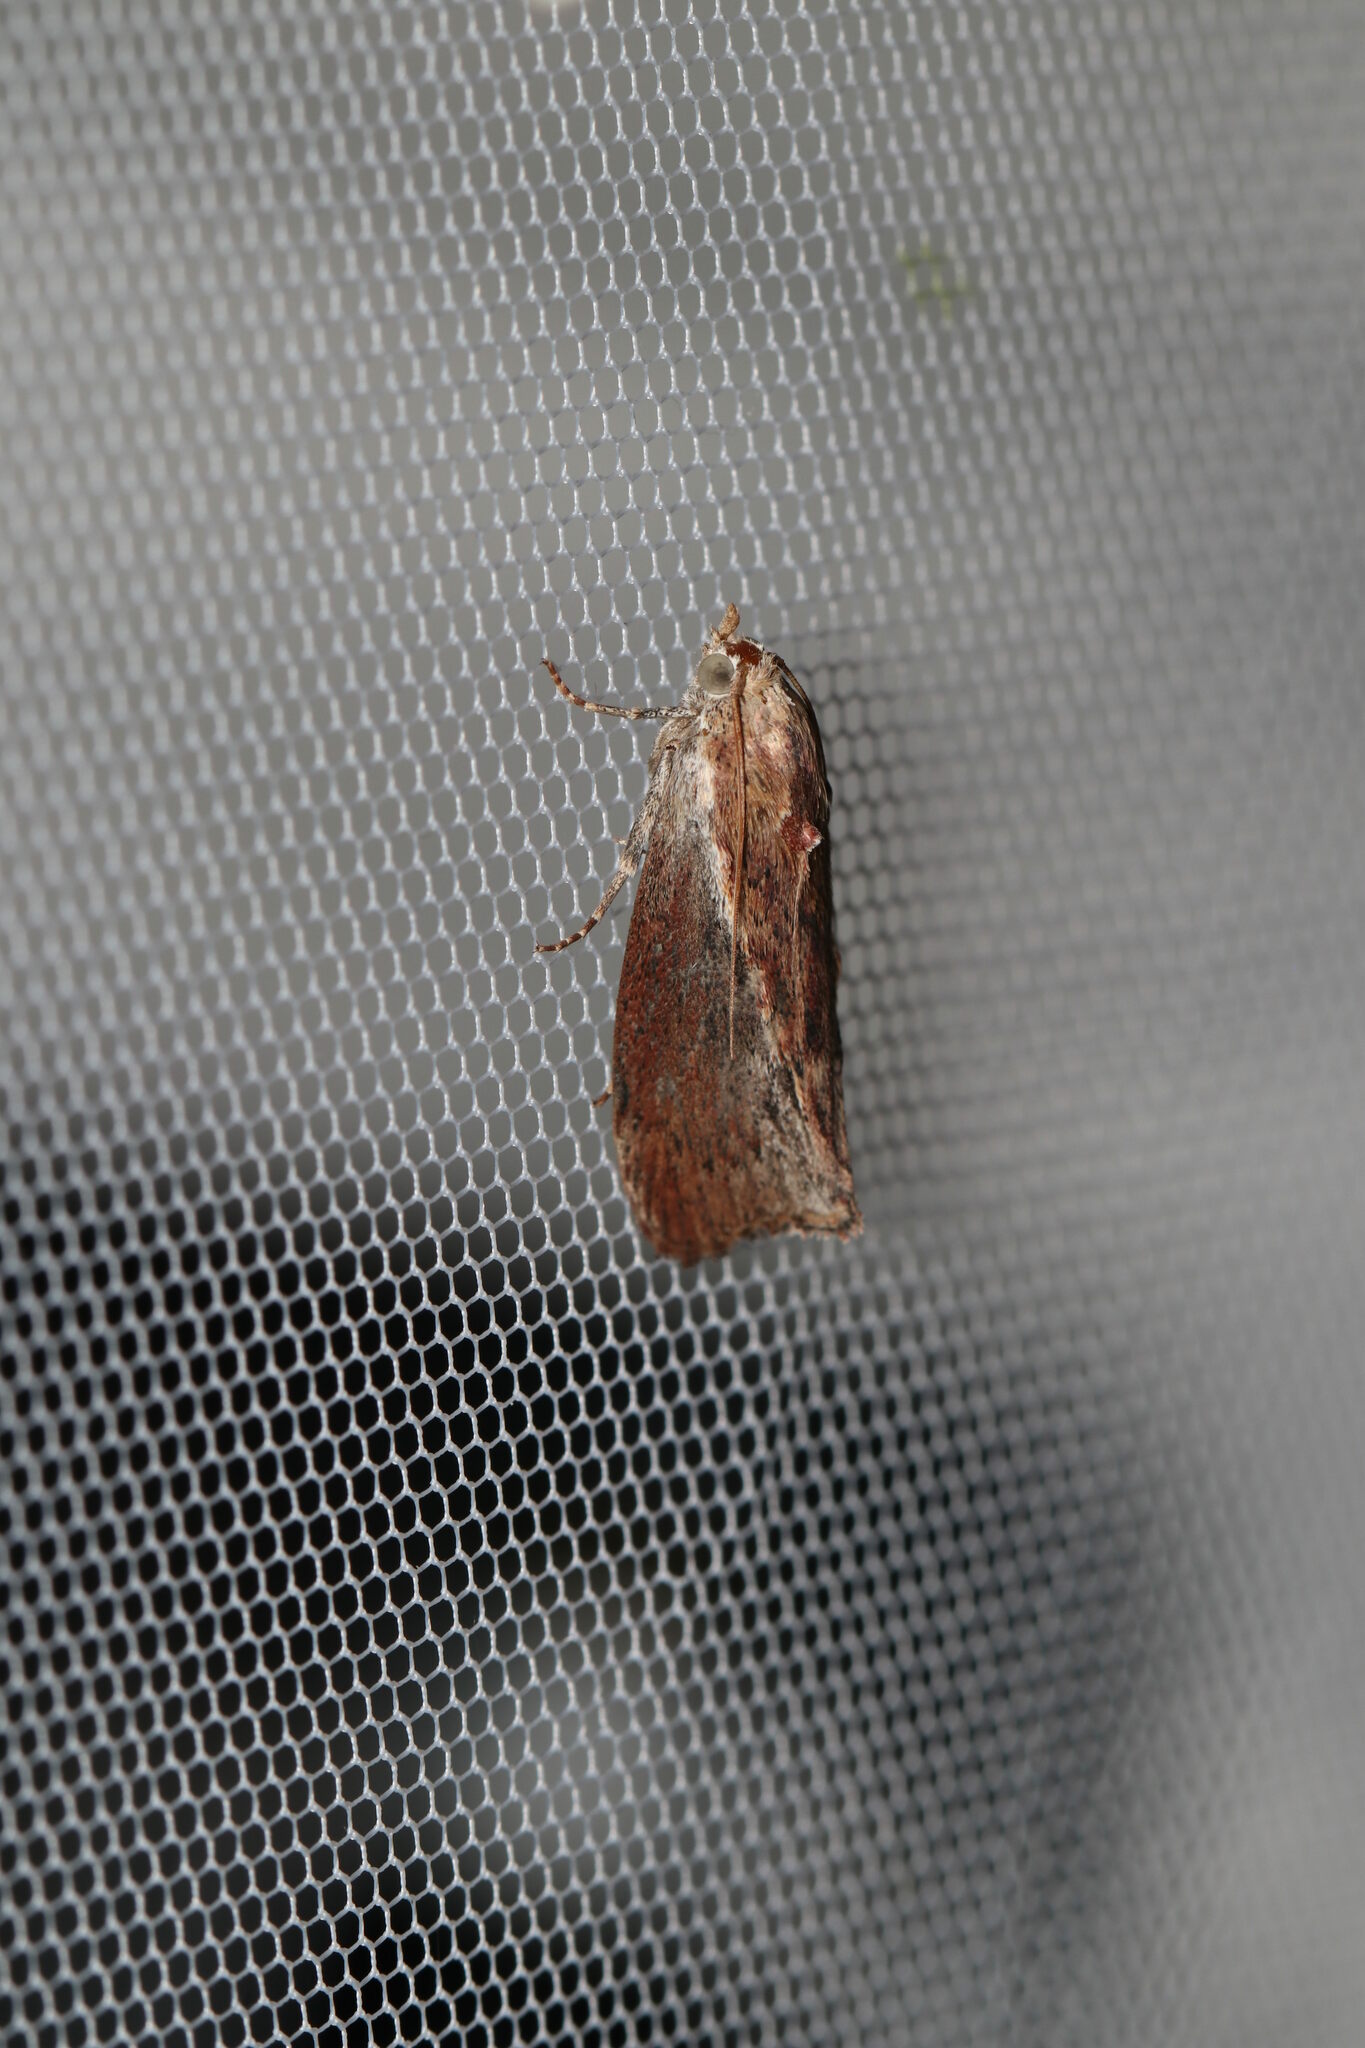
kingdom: Animalia
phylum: Arthropoda
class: Insecta
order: Lepidoptera
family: Pyralidae
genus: Galleria
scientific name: Galleria mellonella
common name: Greater wax moth
